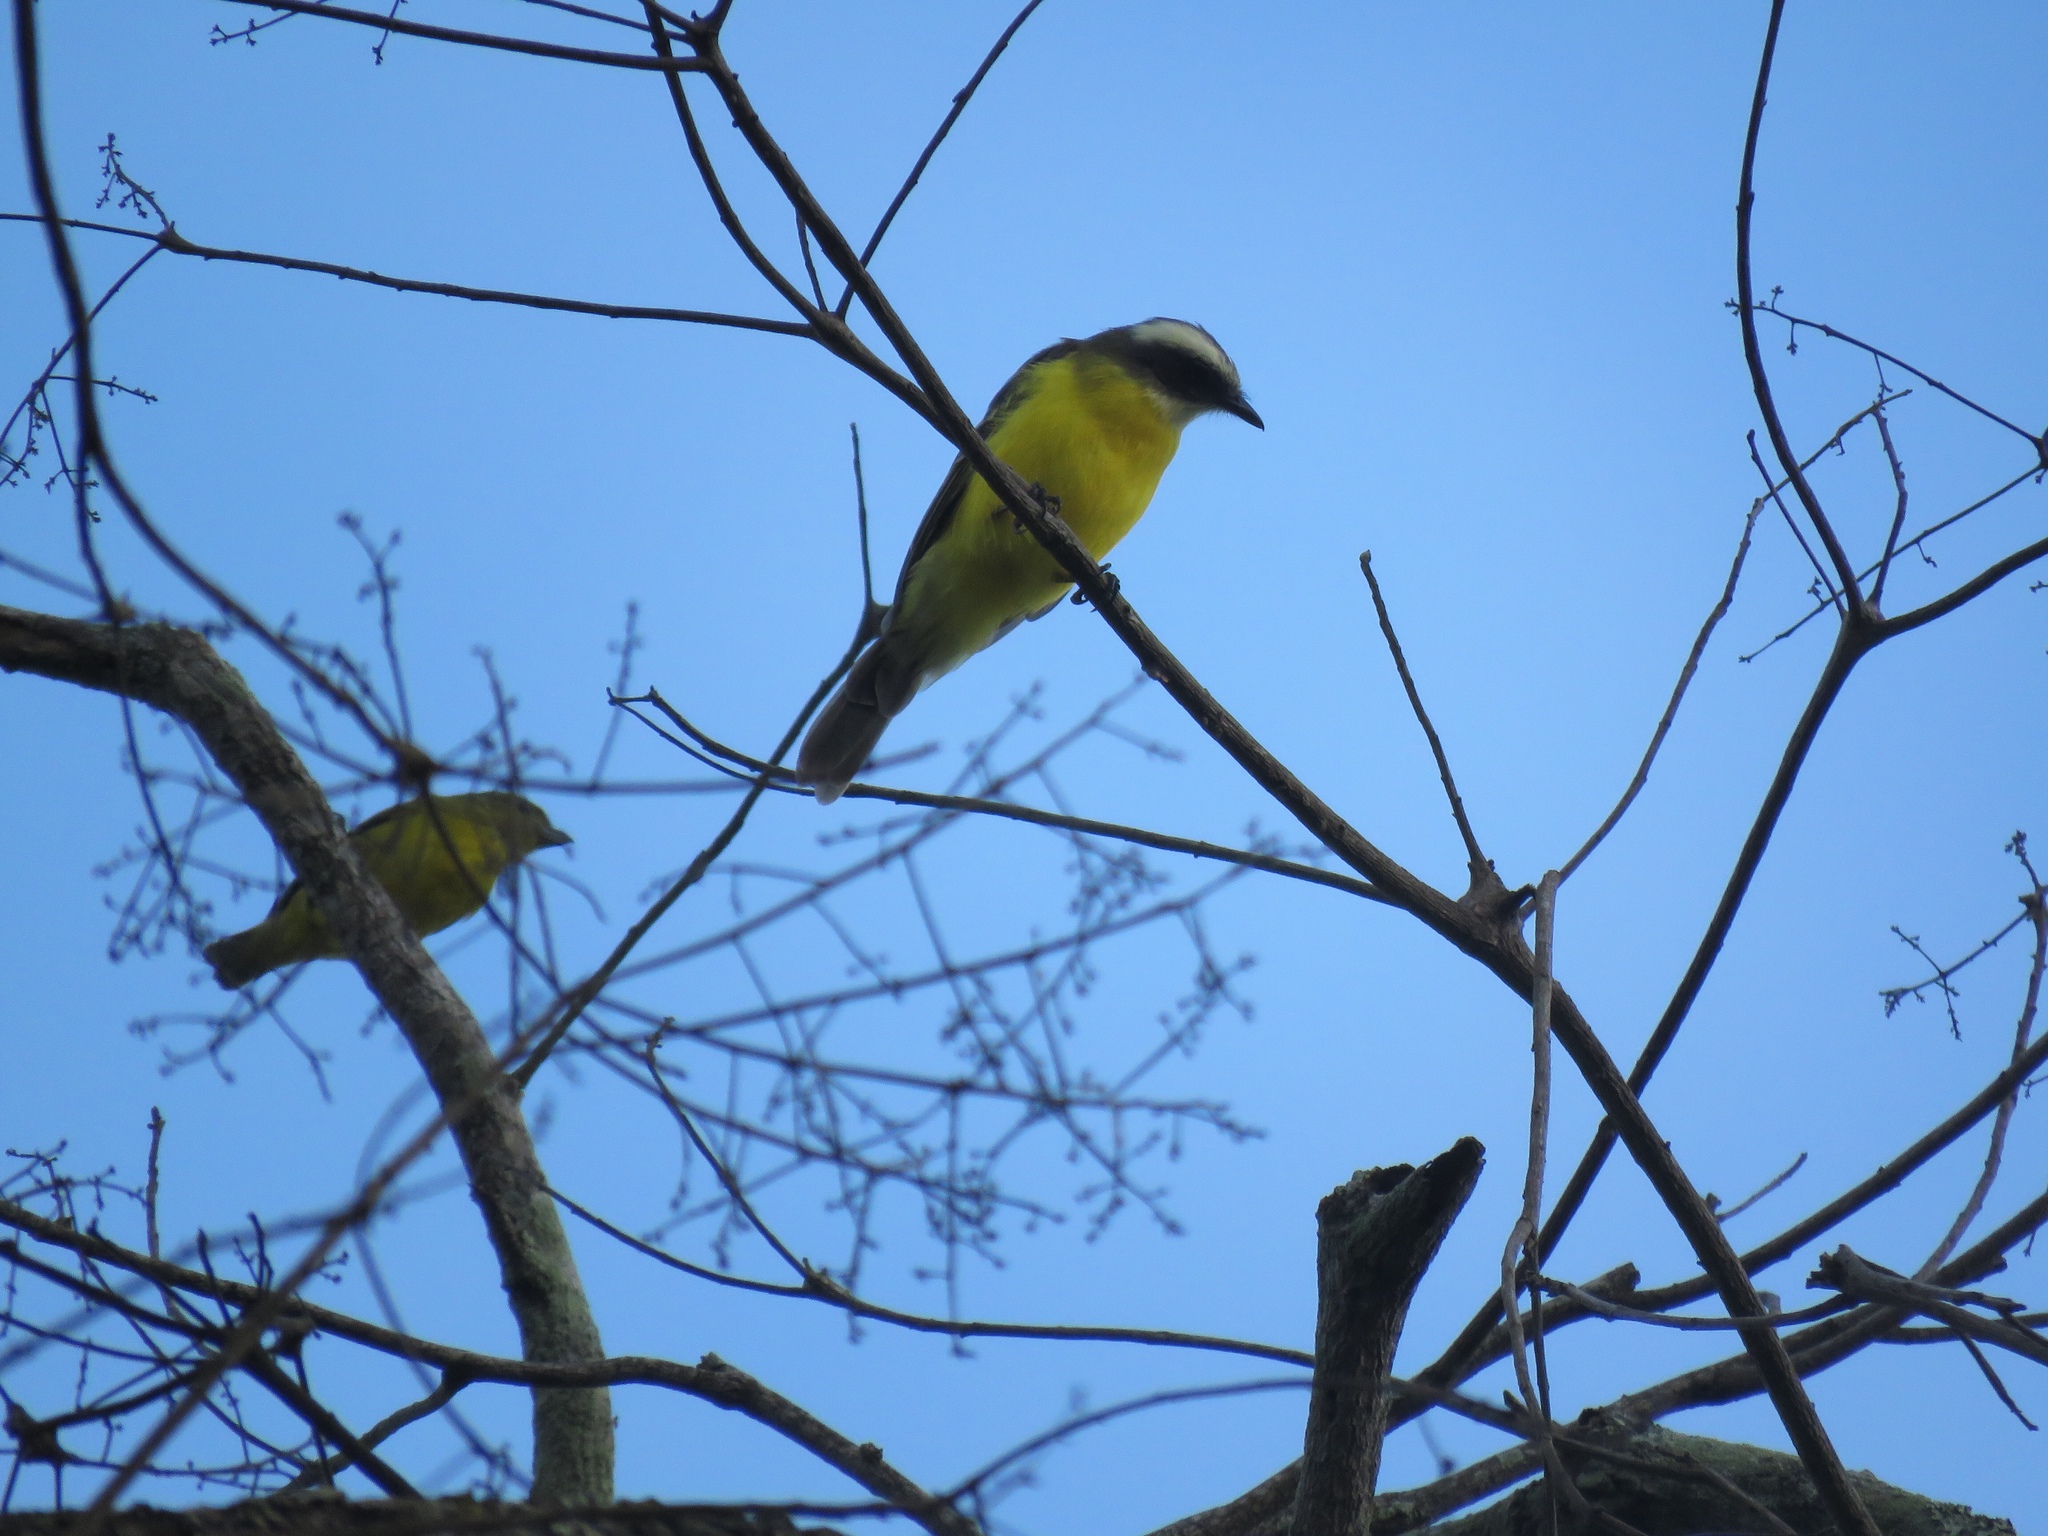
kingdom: Animalia
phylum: Chordata
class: Aves
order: Passeriformes
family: Tyrannidae
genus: Myiozetetes
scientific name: Myiozetetes similis
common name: Social flycatcher
